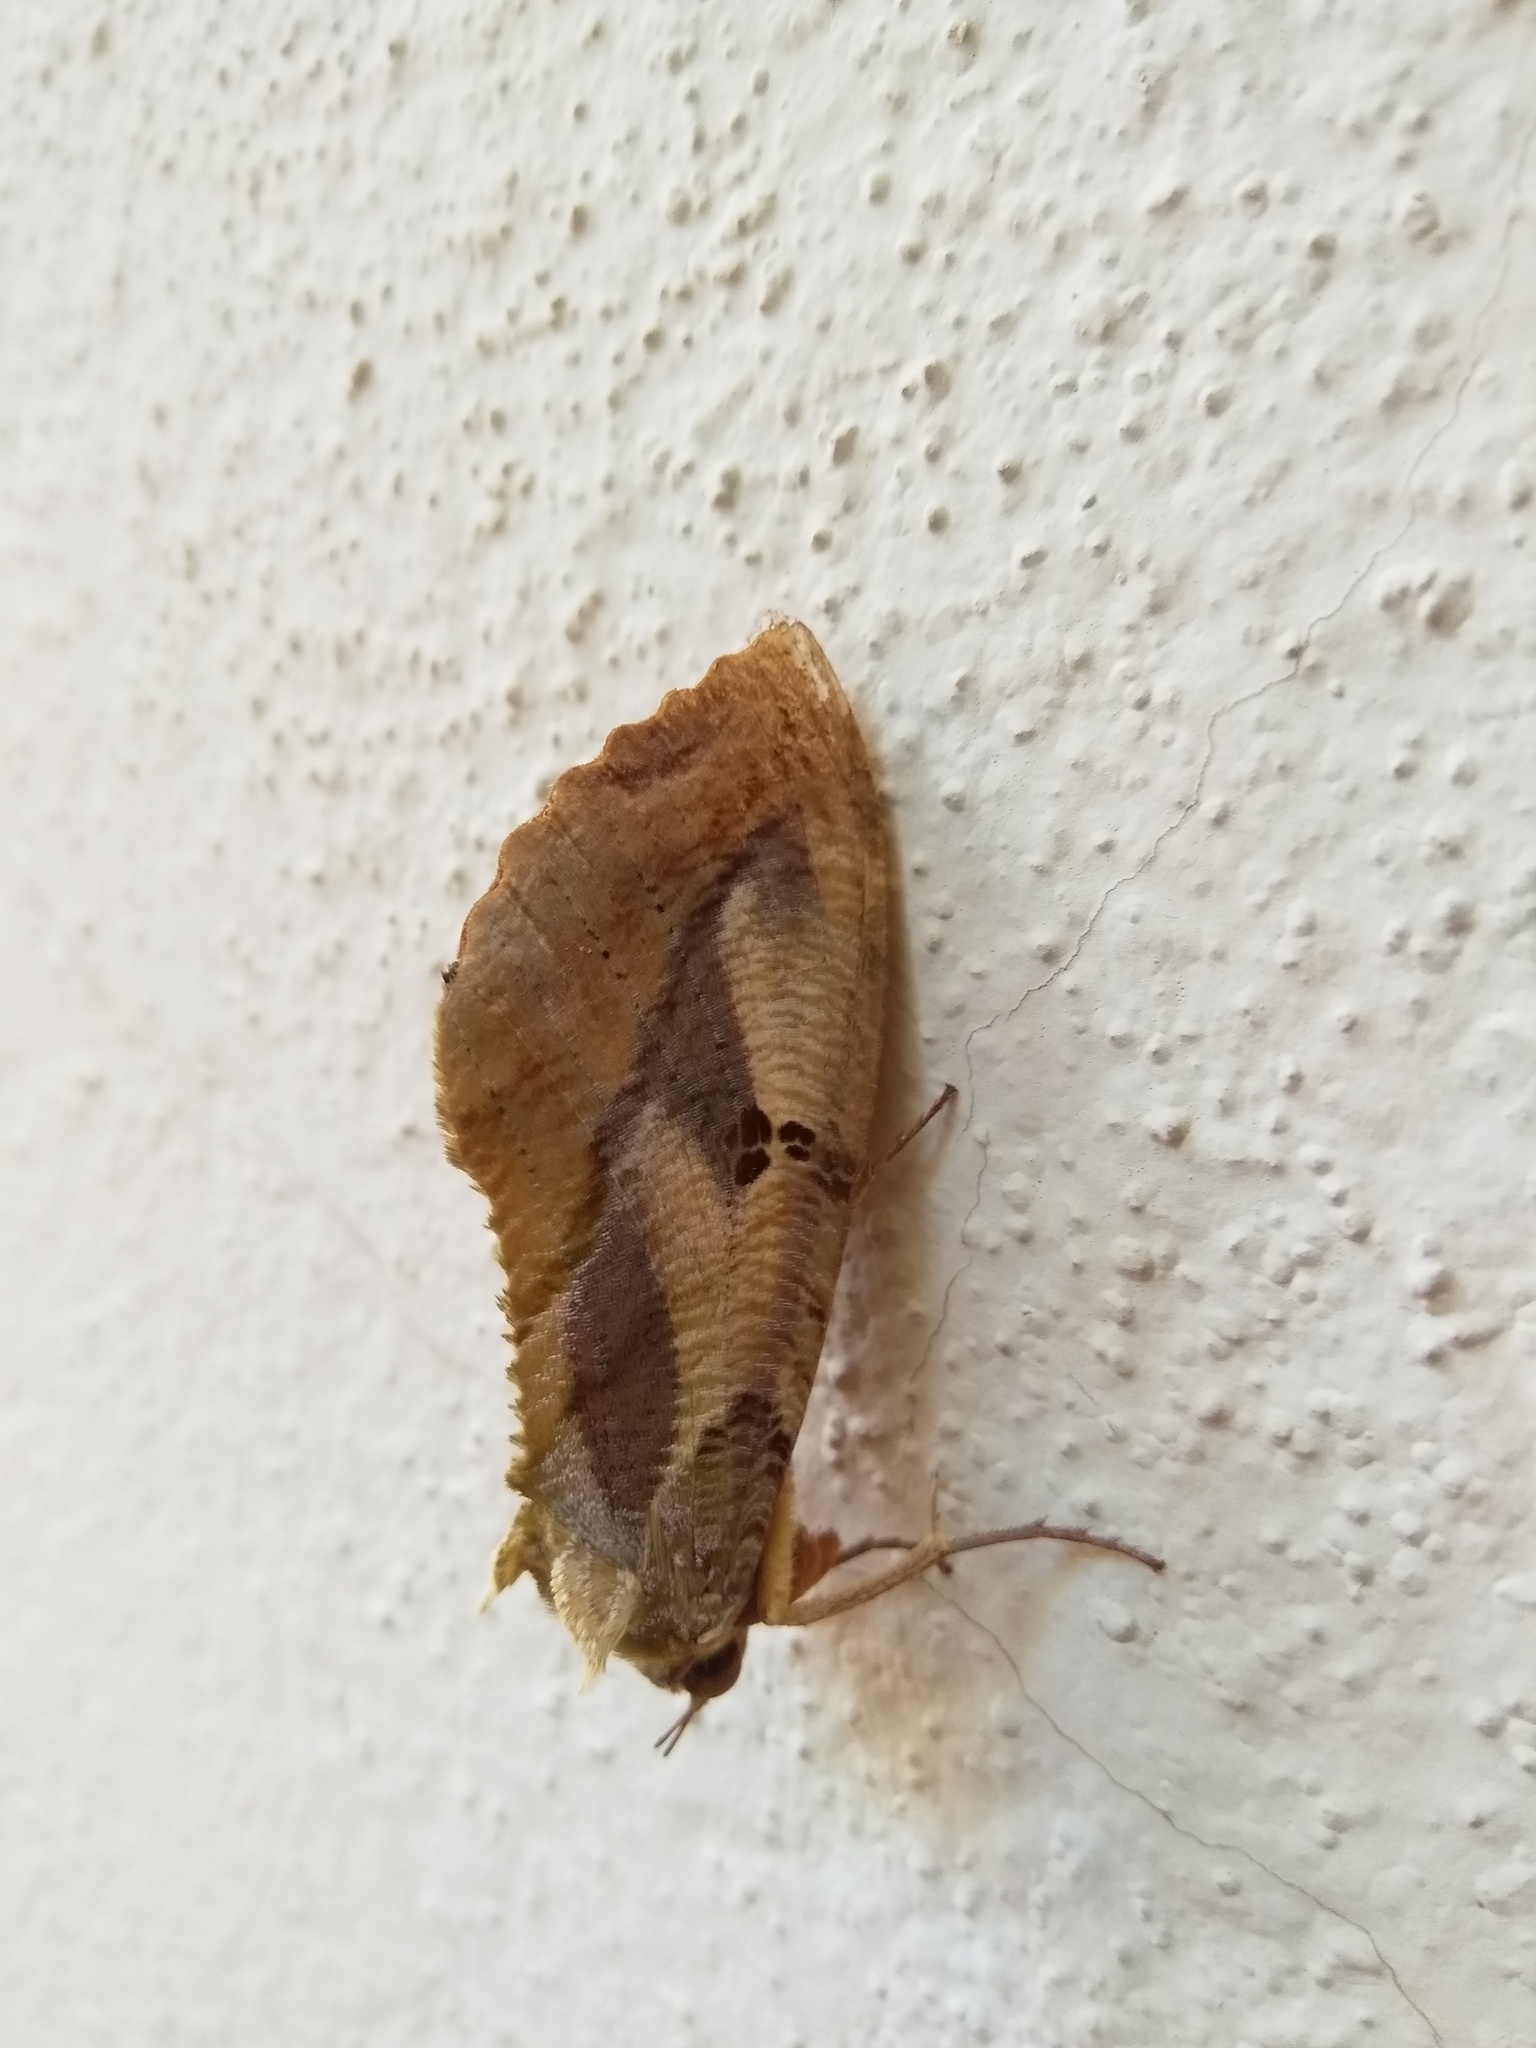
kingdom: Animalia
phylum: Arthropoda
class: Insecta
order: Lepidoptera
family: Erebidae
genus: Eudocima
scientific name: Eudocima materna
